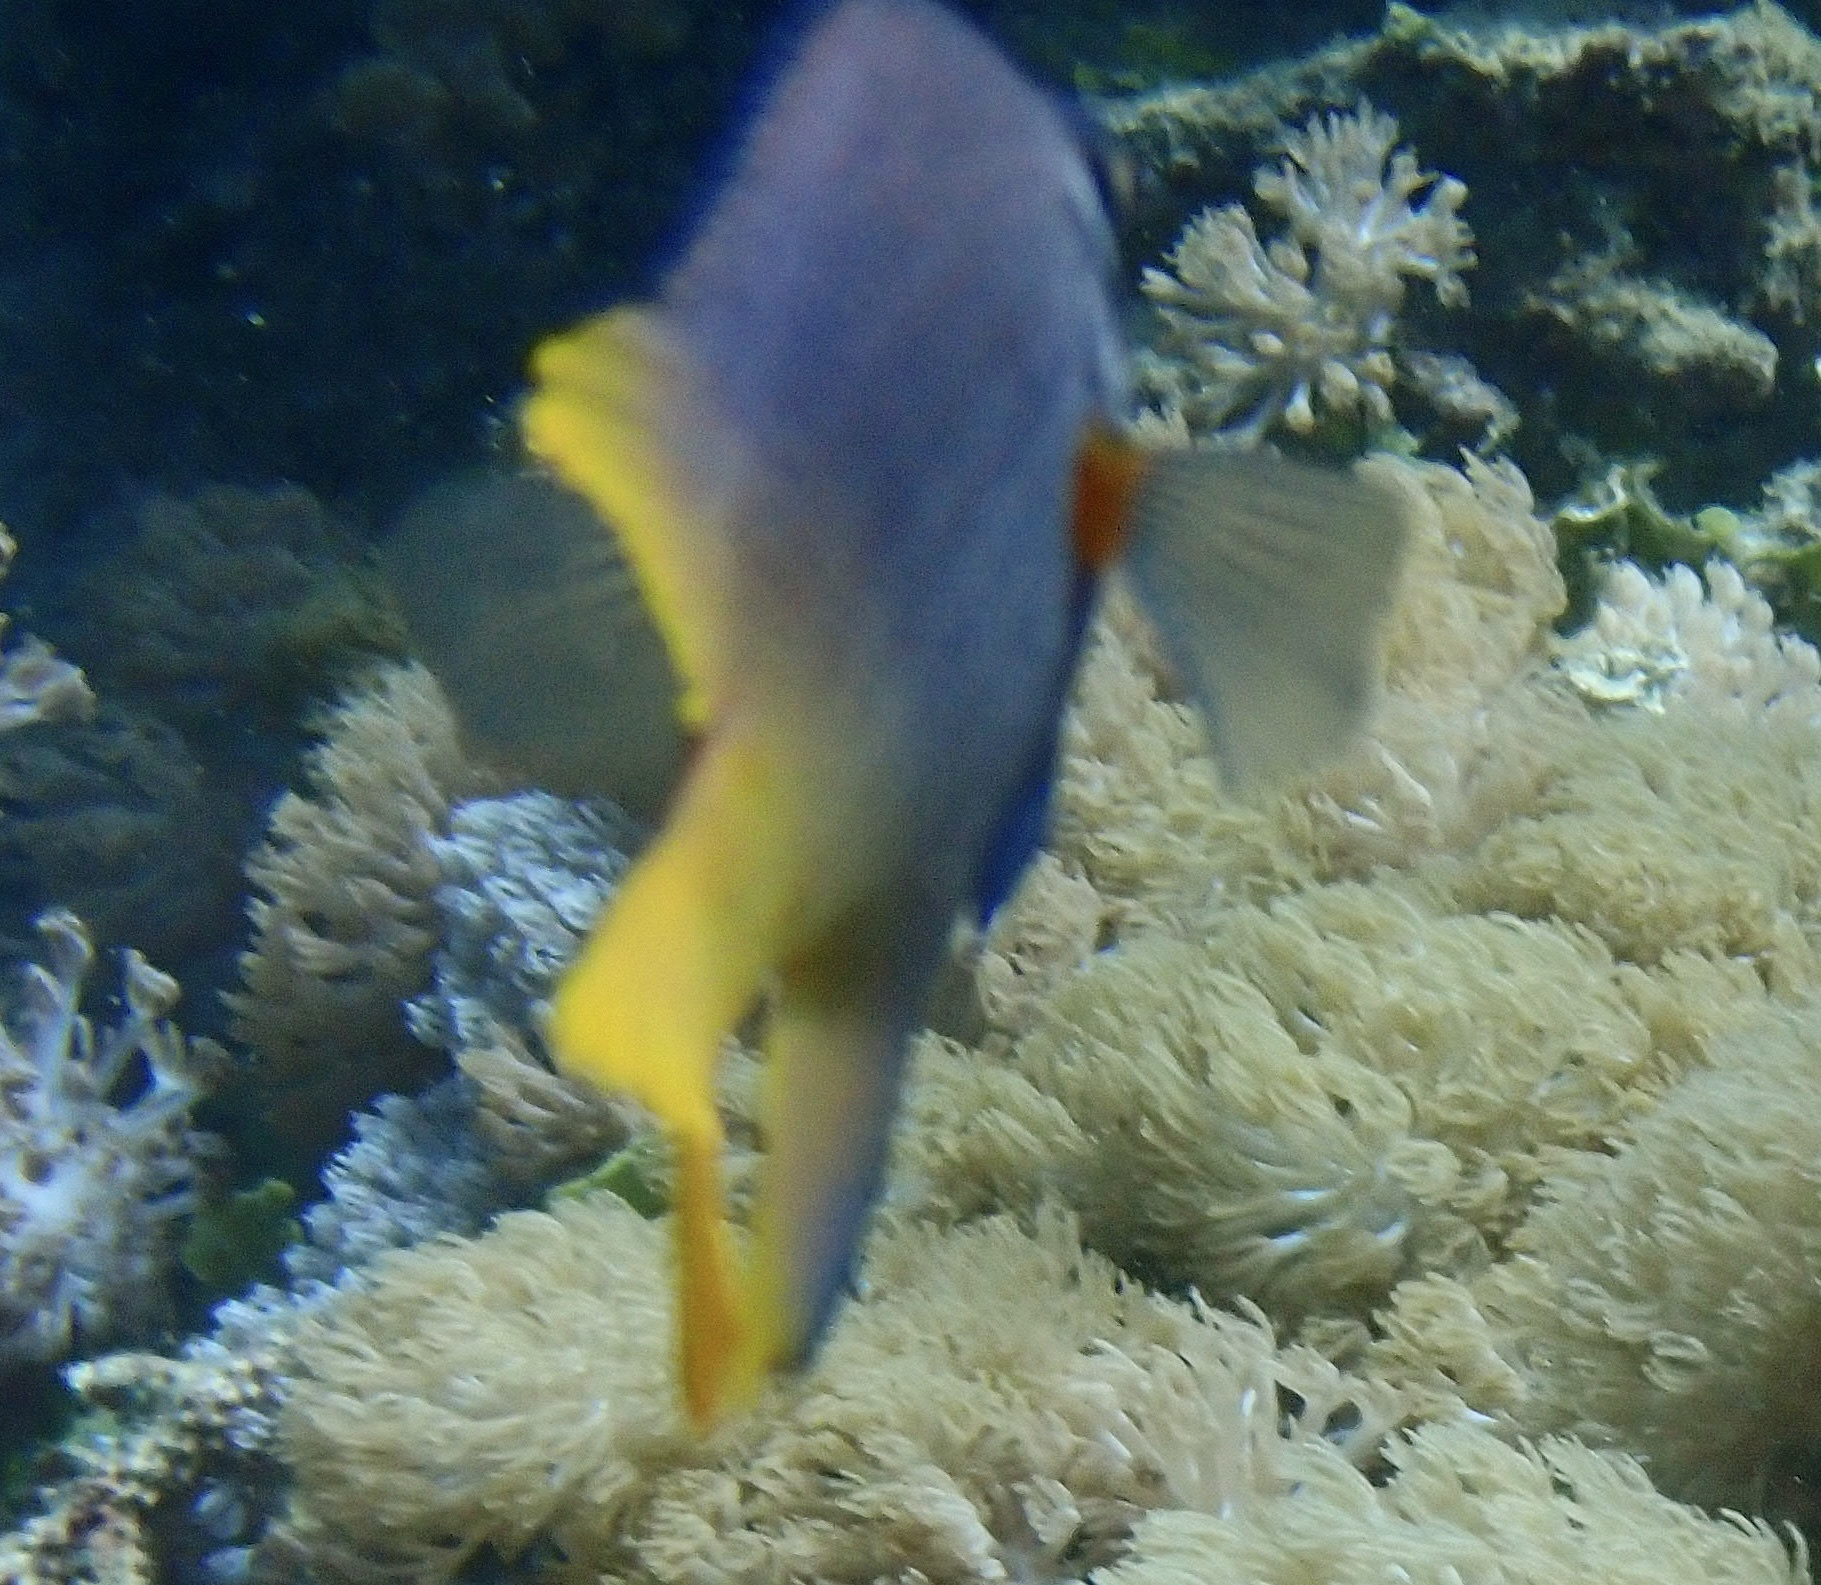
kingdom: Animalia
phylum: Chordata
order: Perciformes
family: Pomacentridae
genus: Neoglyphidodon
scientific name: Neoglyphidodon nigroris
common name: Behn's damsel
